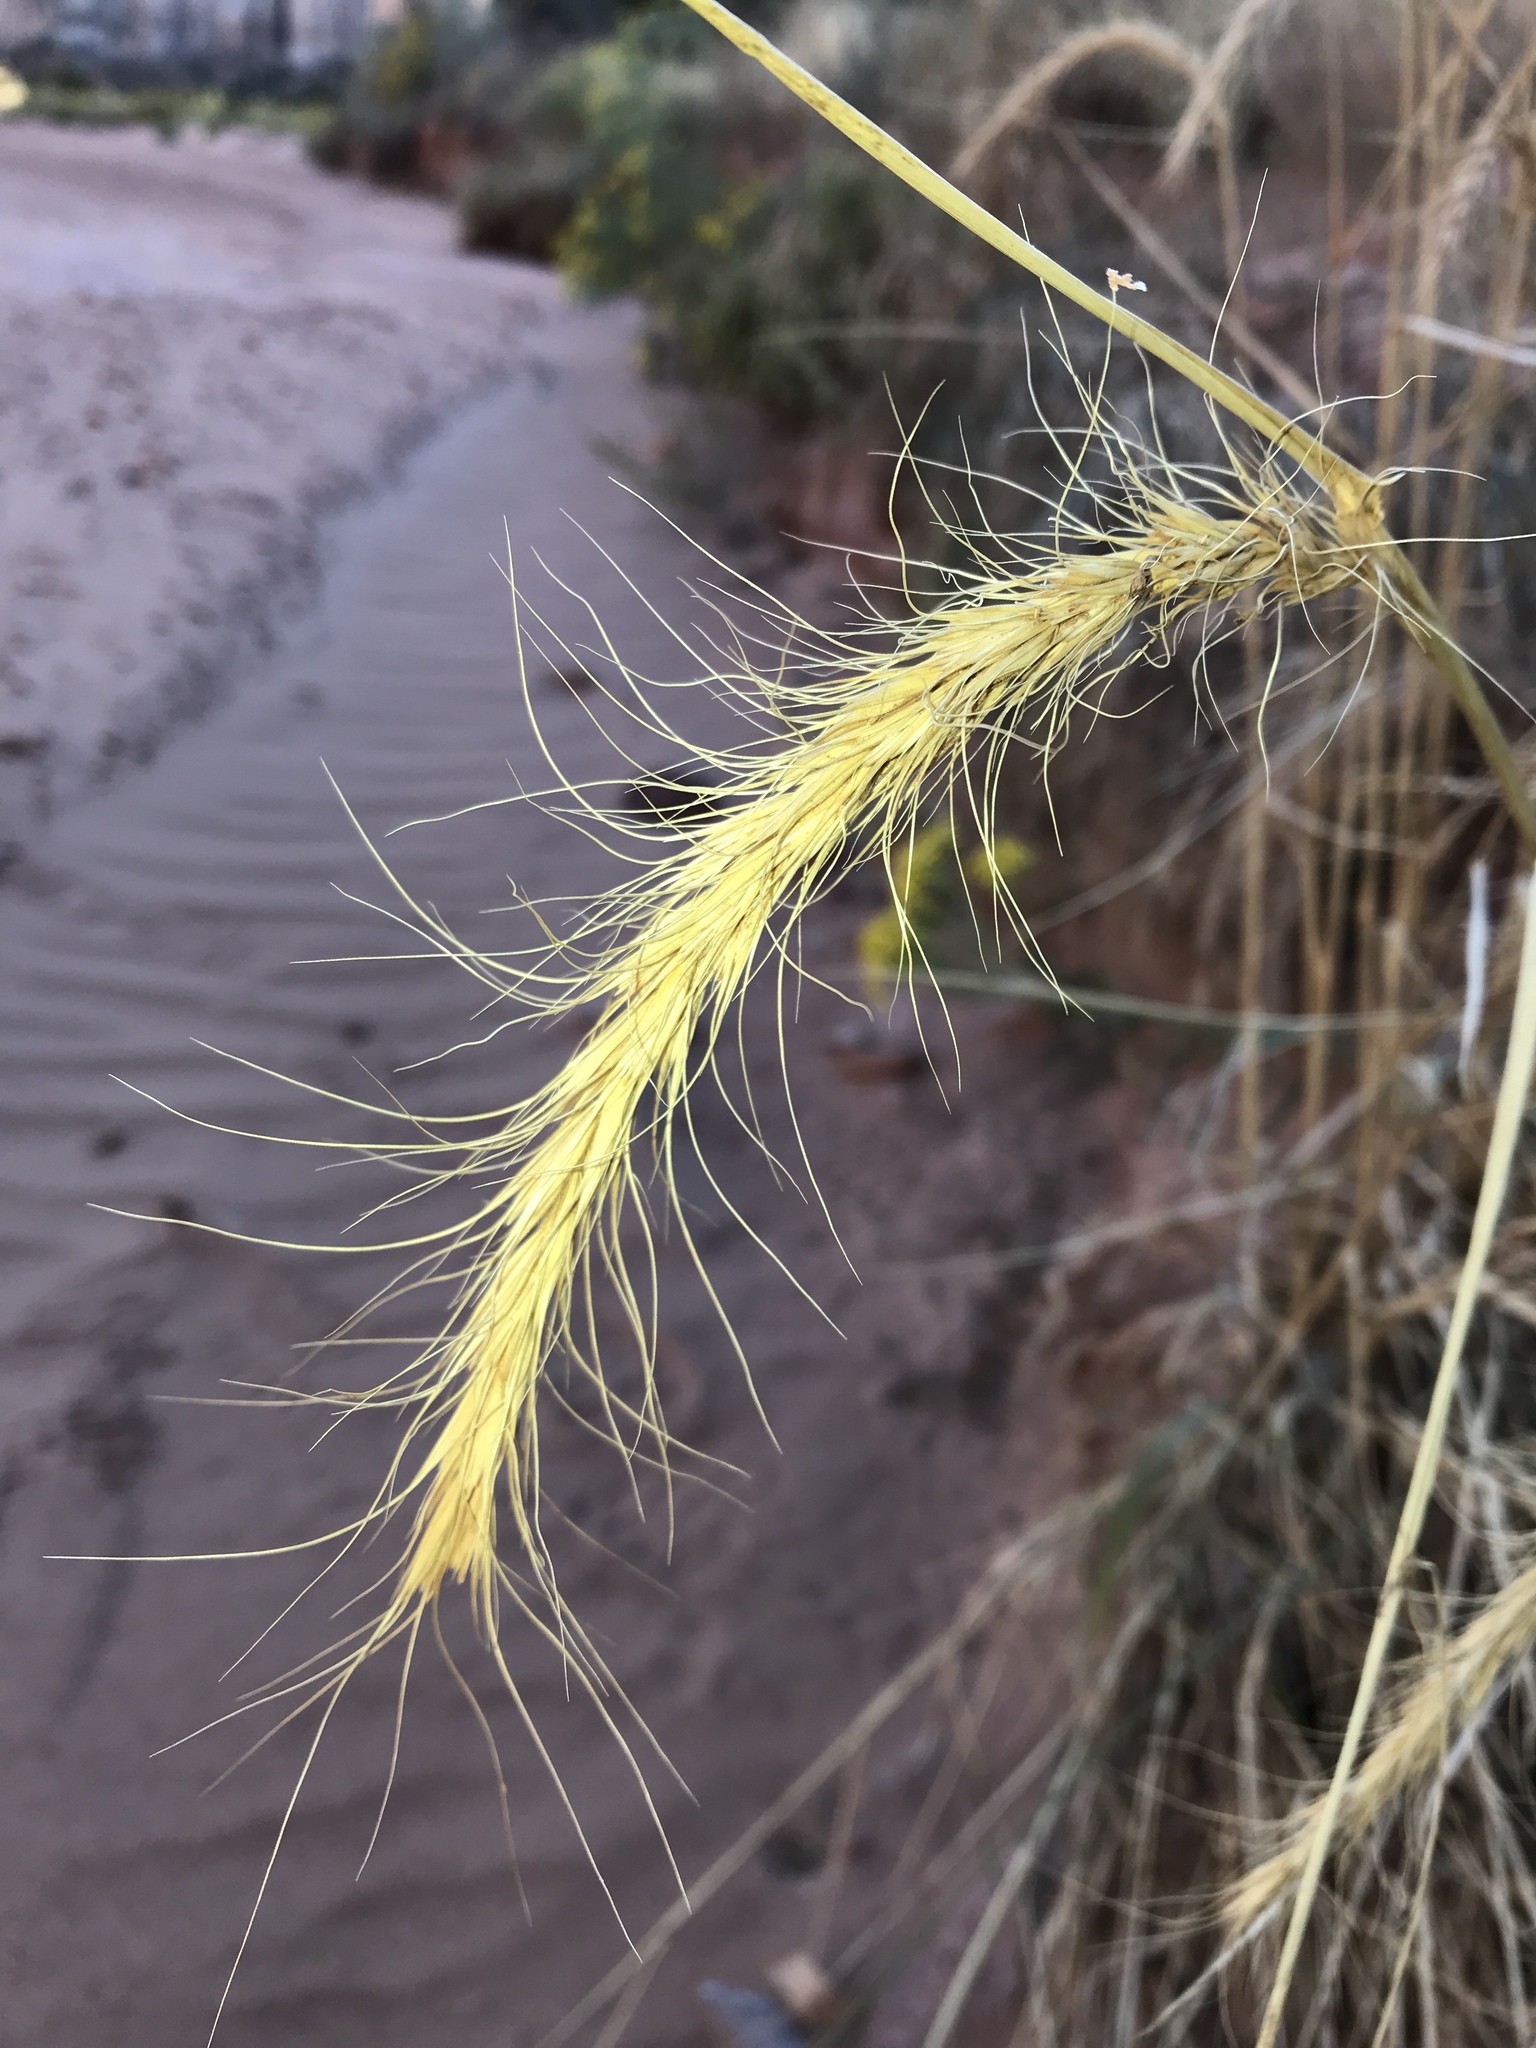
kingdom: Plantae
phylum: Tracheophyta
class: Liliopsida
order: Poales
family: Poaceae
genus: Elymus
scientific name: Elymus canadensis
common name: Canada wild rye
